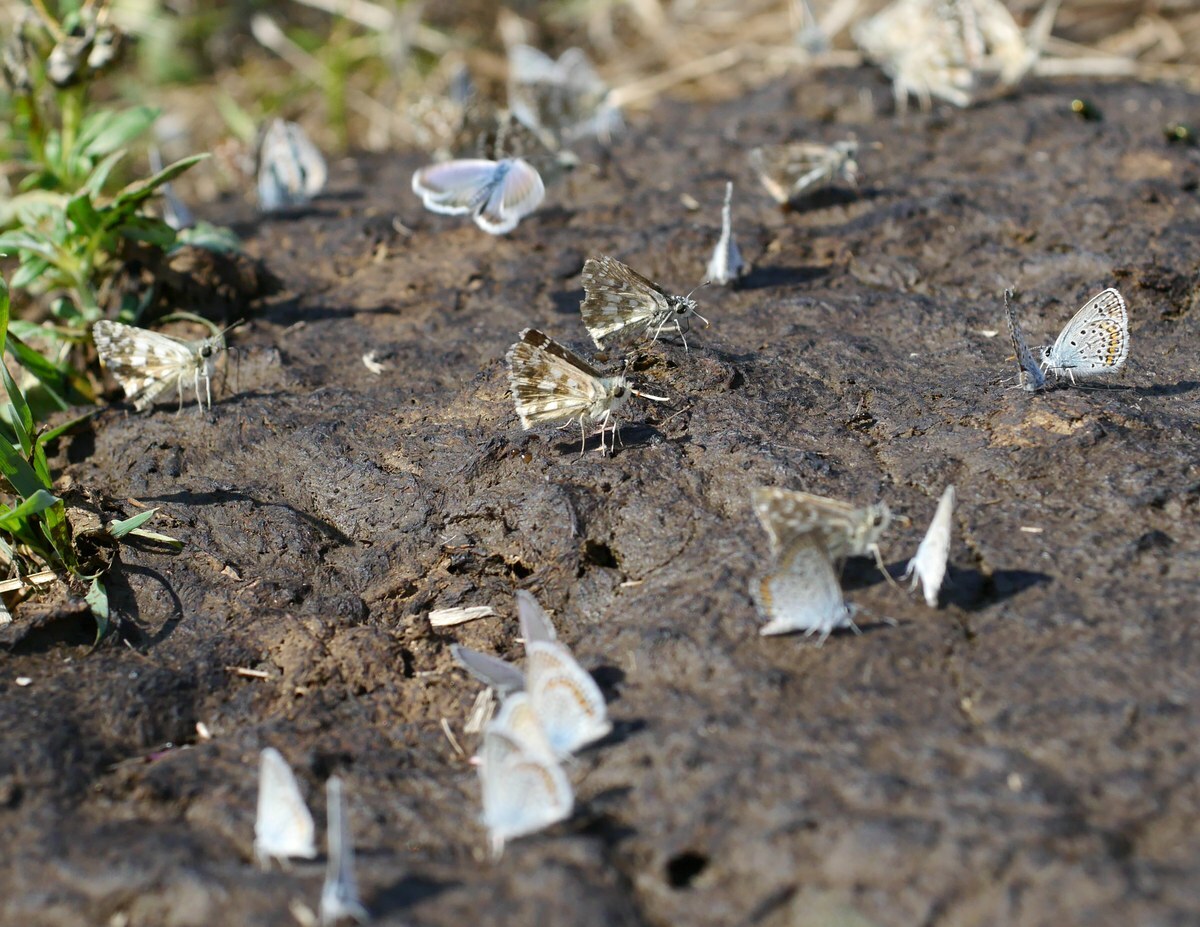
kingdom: Animalia
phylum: Arthropoda
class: Insecta
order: Lepidoptera
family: Hesperiidae
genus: Pyrgus
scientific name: Pyrgus armoricanus
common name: Oberthür's grizzled skipper
